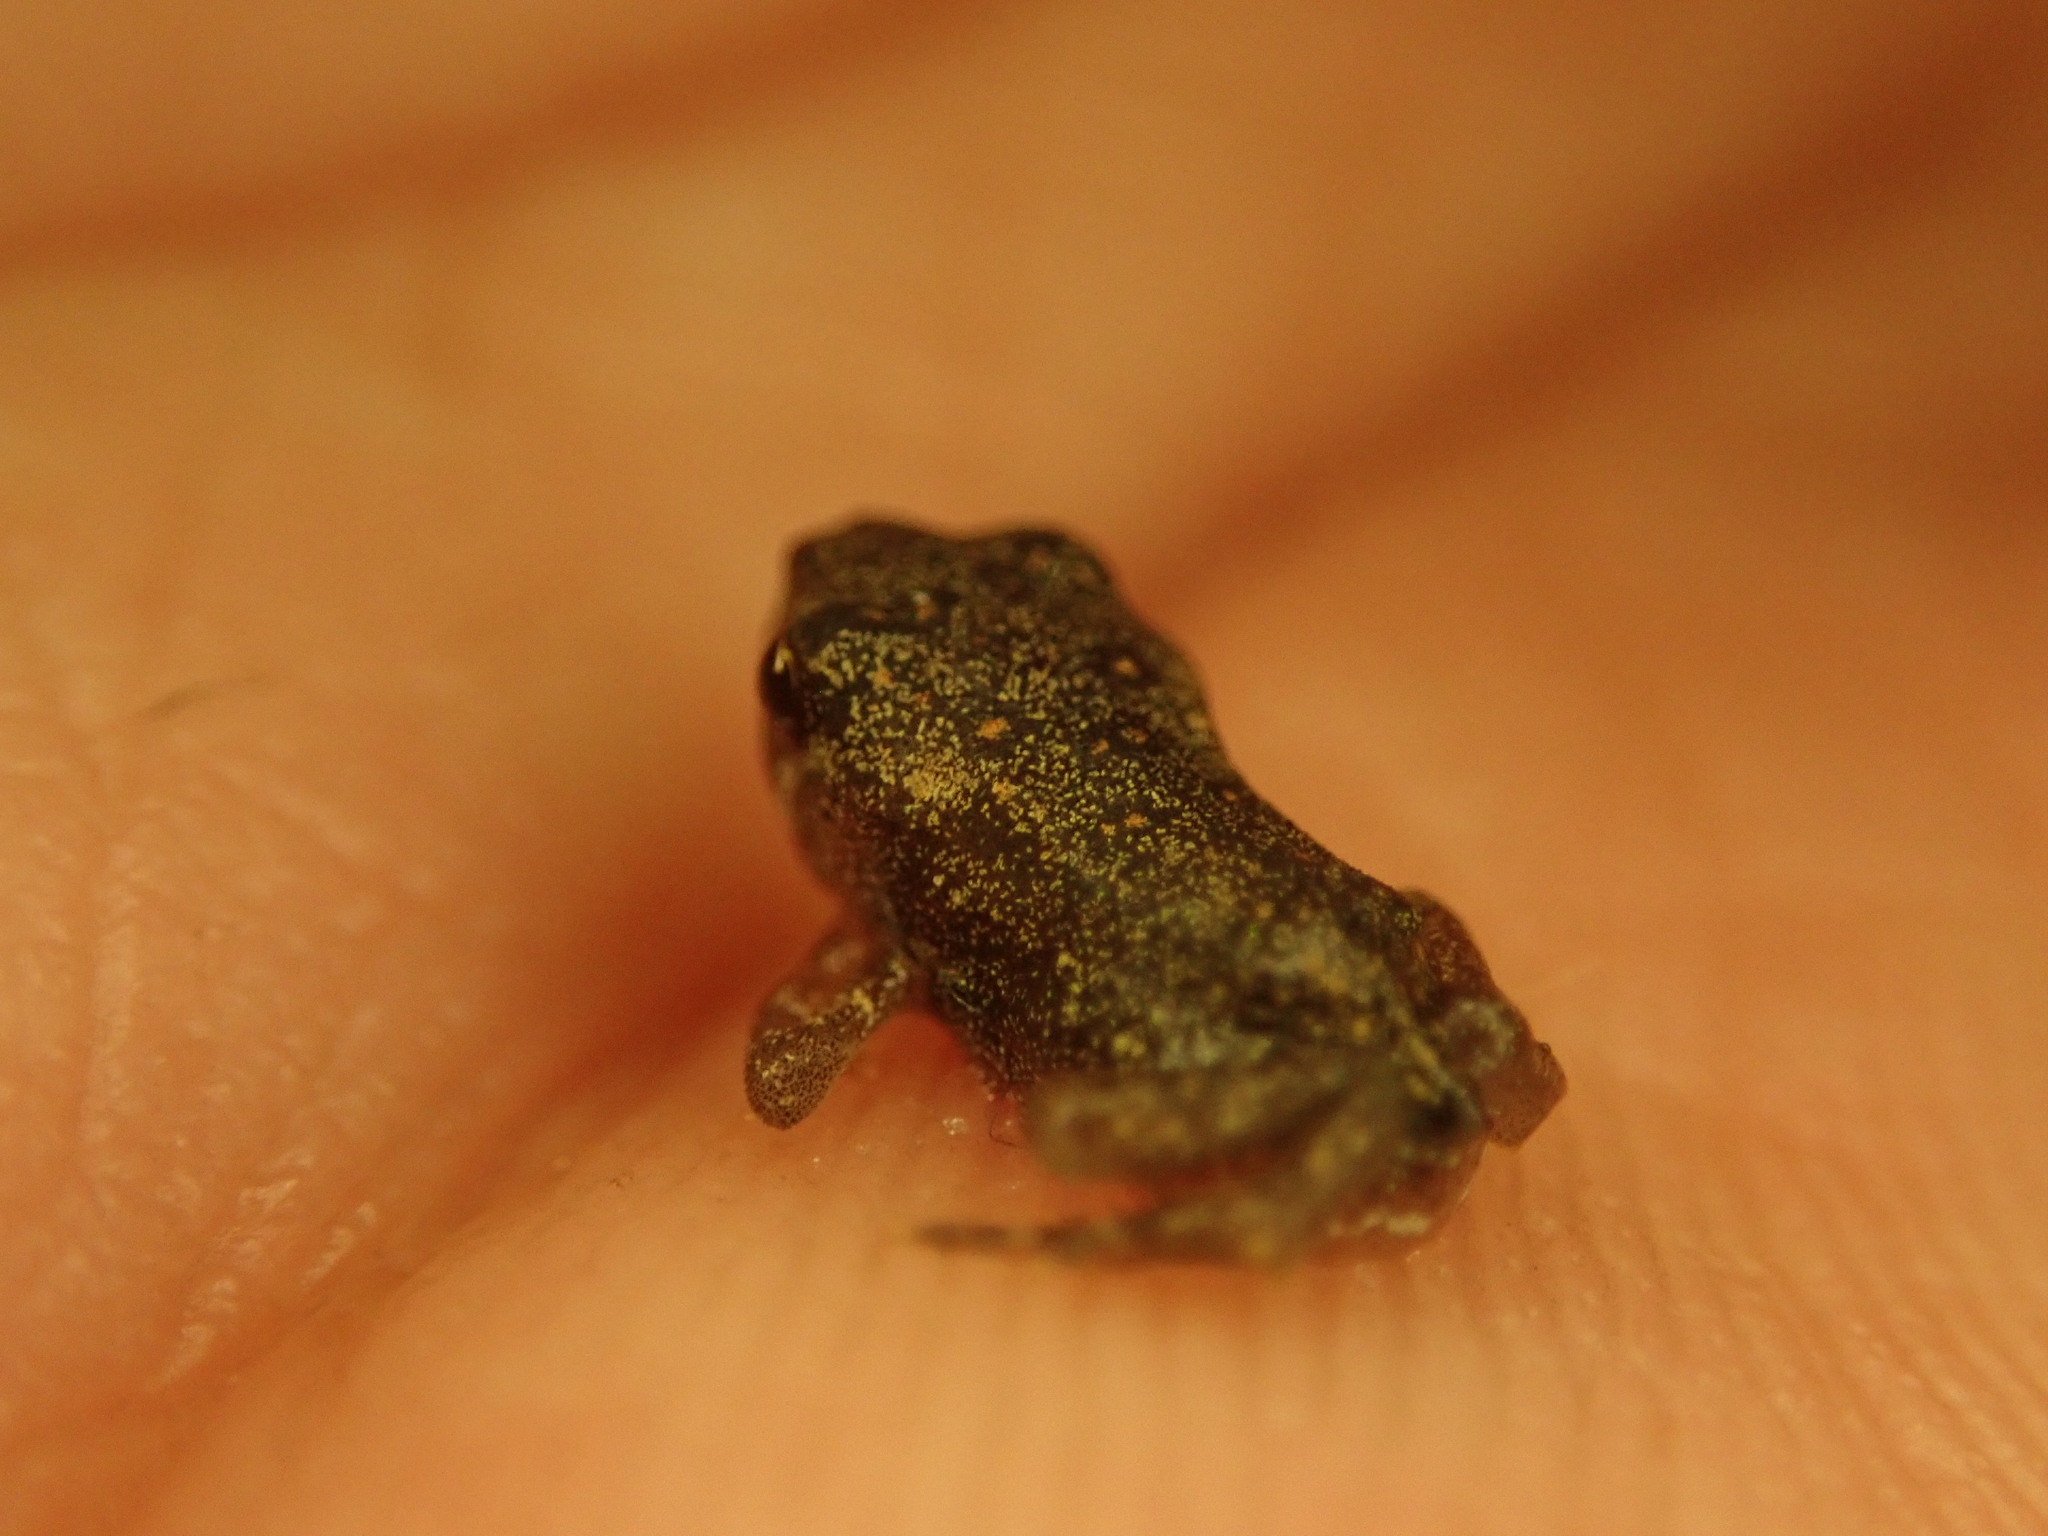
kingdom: Animalia
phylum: Chordata
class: Amphibia
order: Anura
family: Bufonidae
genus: Anaxyrus
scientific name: Anaxyrus americanus
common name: American toad
